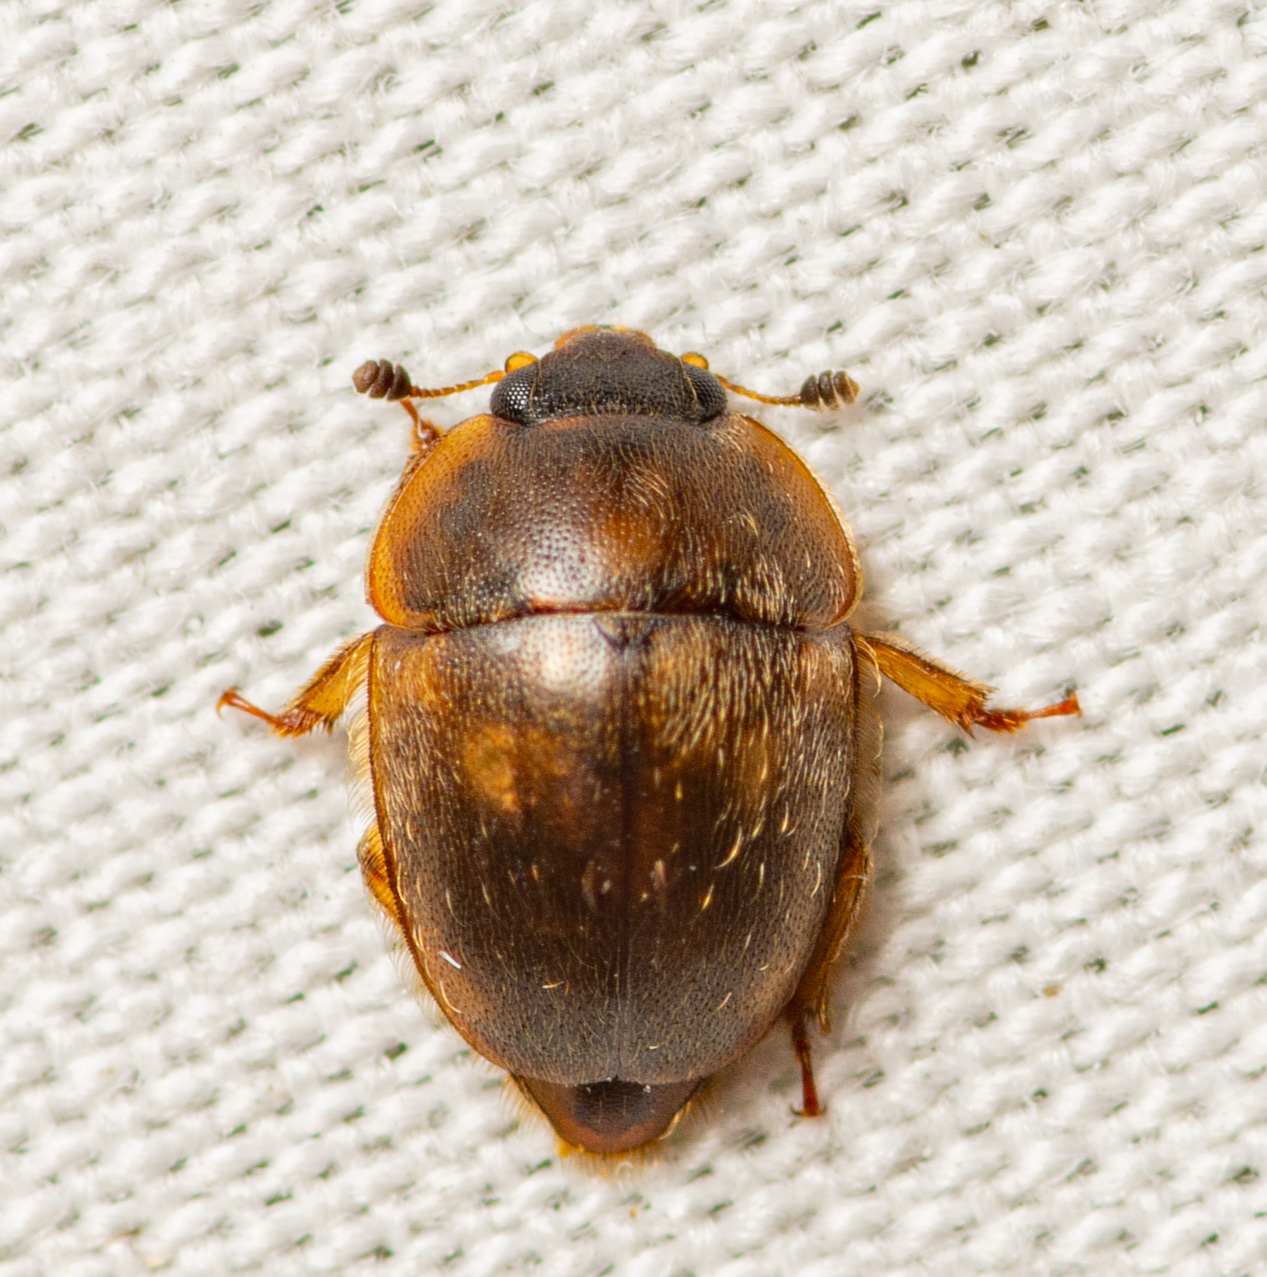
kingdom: Animalia
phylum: Arthropoda
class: Insecta
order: Coleoptera
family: Nitidulidae
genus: Amphicrossus
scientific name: Amphicrossus ciliatus
